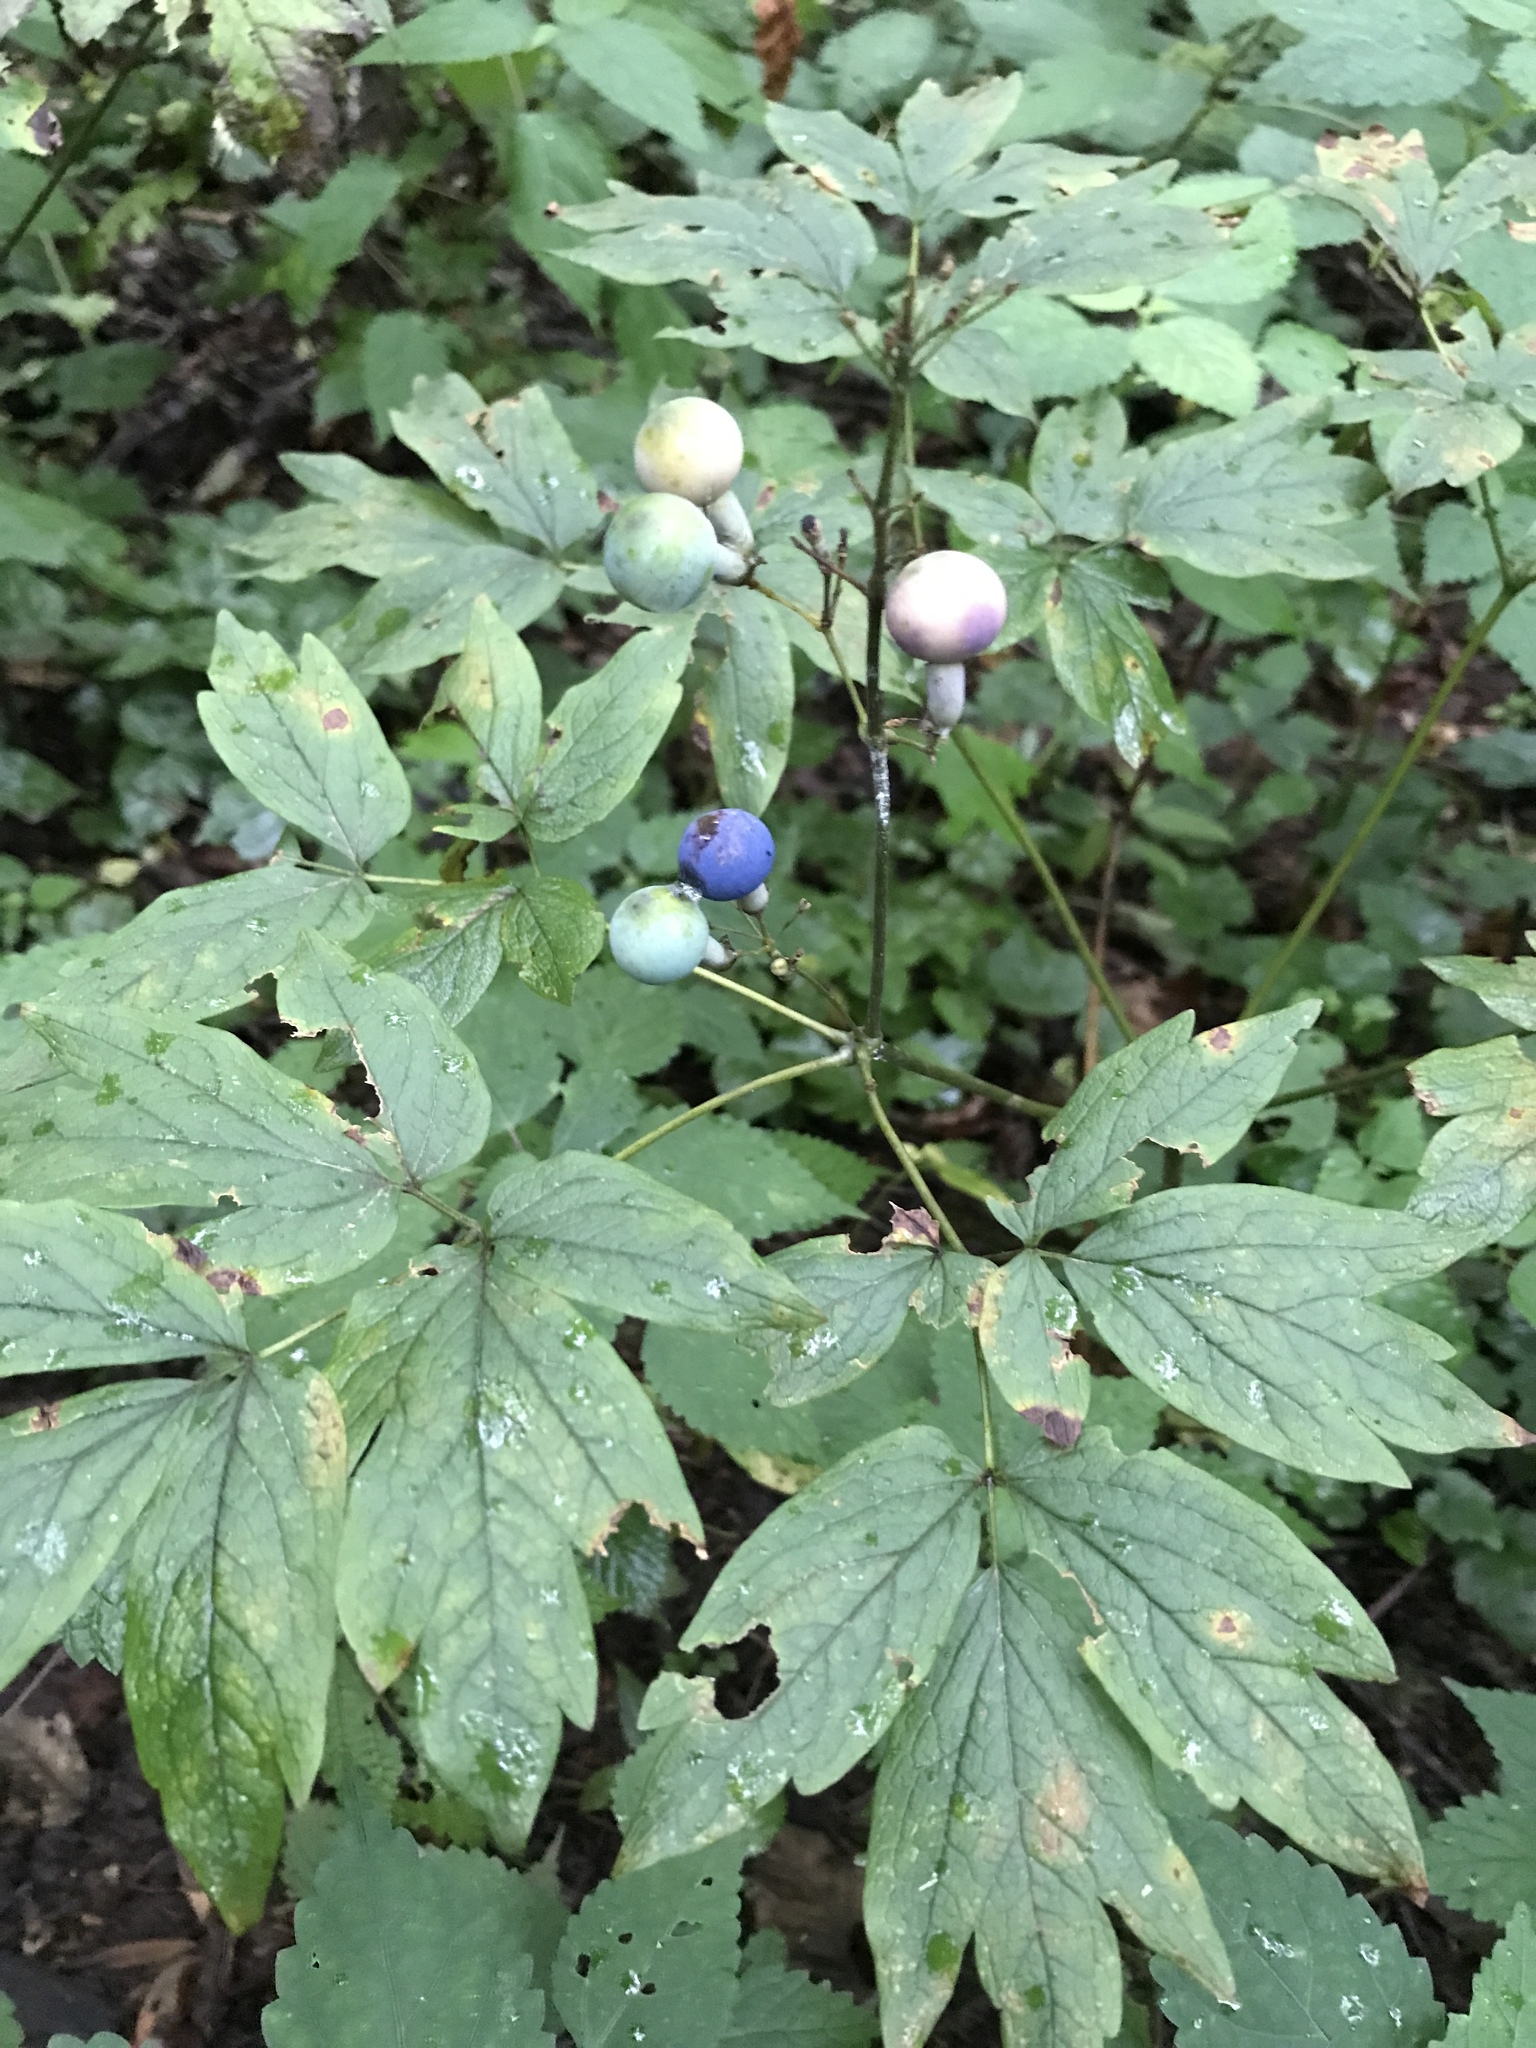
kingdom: Plantae
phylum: Tracheophyta
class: Magnoliopsida
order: Ranunculales
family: Berberidaceae
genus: Caulophyllum
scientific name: Caulophyllum thalictroides
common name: Blue cohosh
